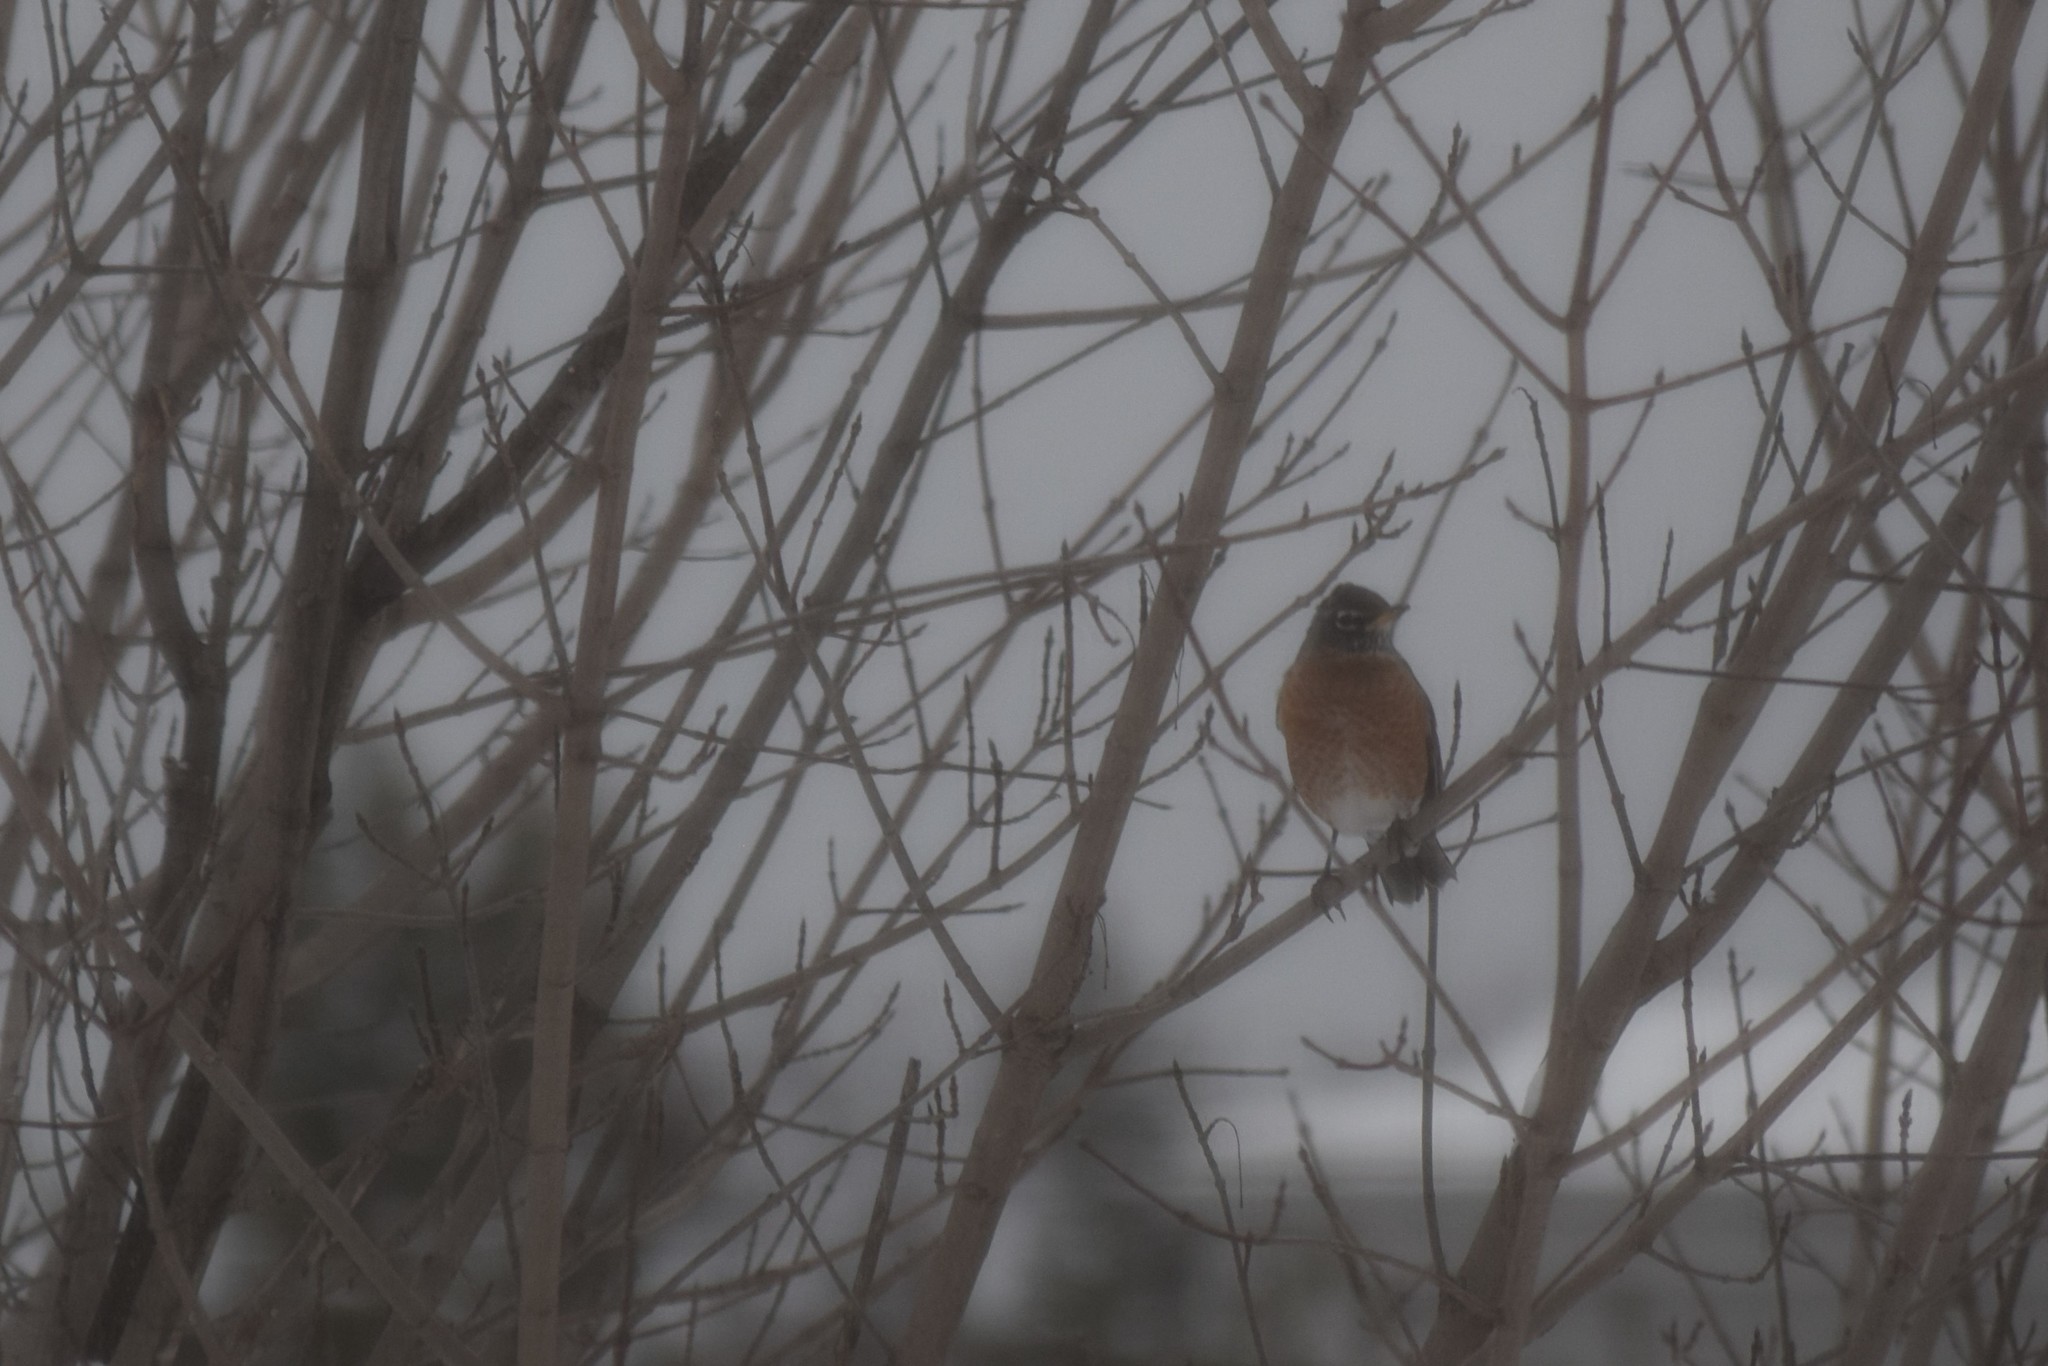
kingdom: Animalia
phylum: Chordata
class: Aves
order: Passeriformes
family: Turdidae
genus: Turdus
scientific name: Turdus migratorius
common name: American robin
